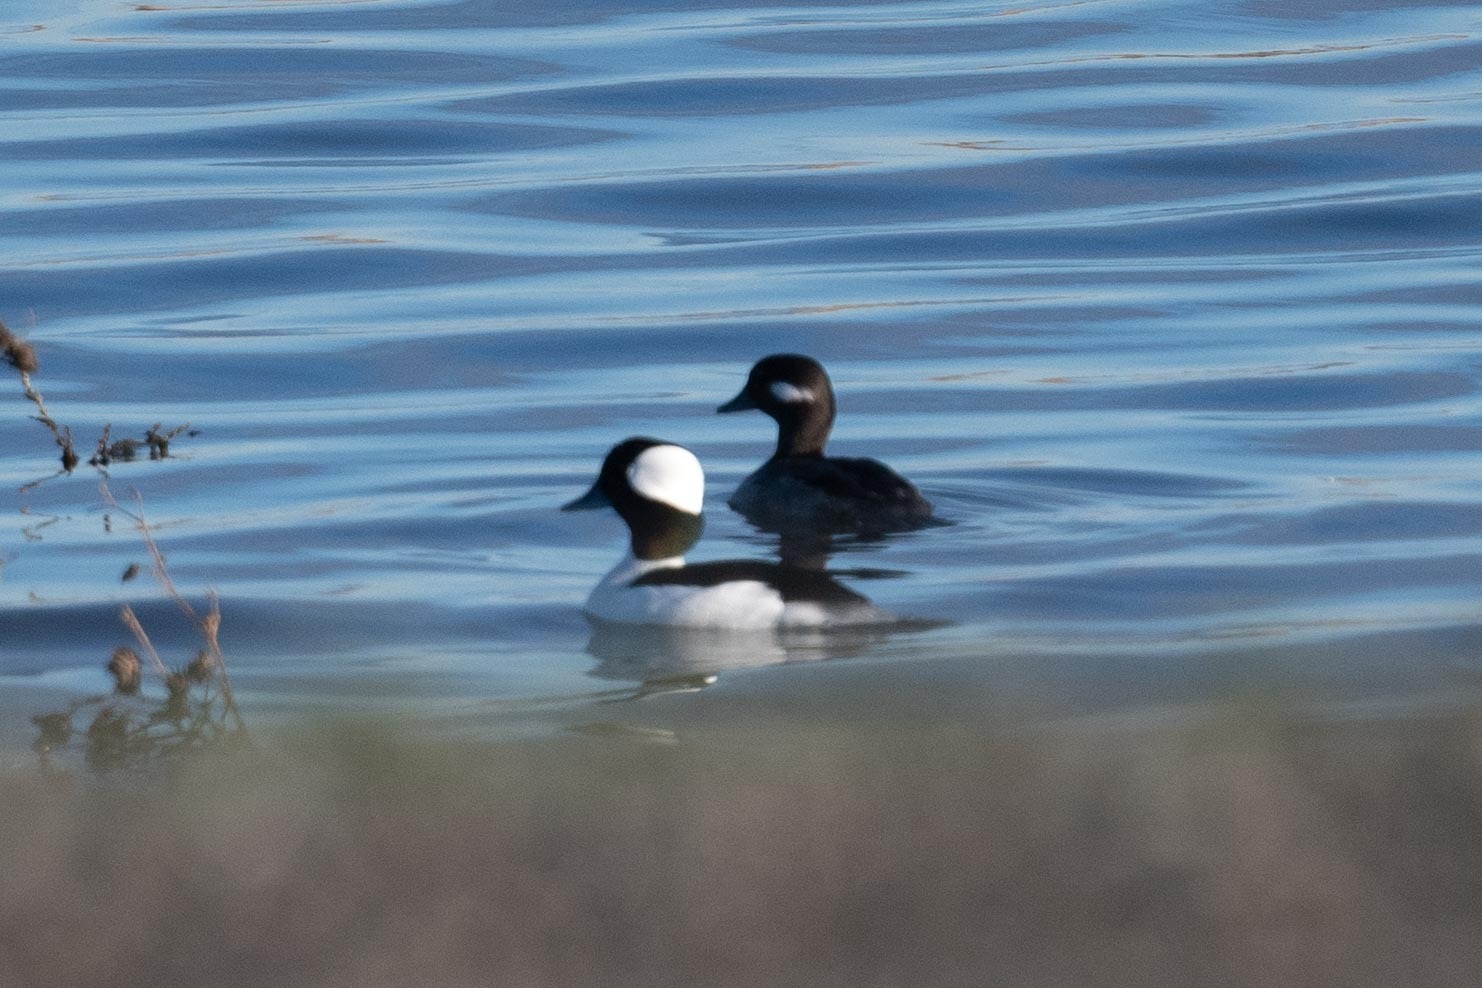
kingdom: Animalia
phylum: Chordata
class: Aves
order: Anseriformes
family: Anatidae
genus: Bucephala
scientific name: Bucephala albeola
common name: Bufflehead
